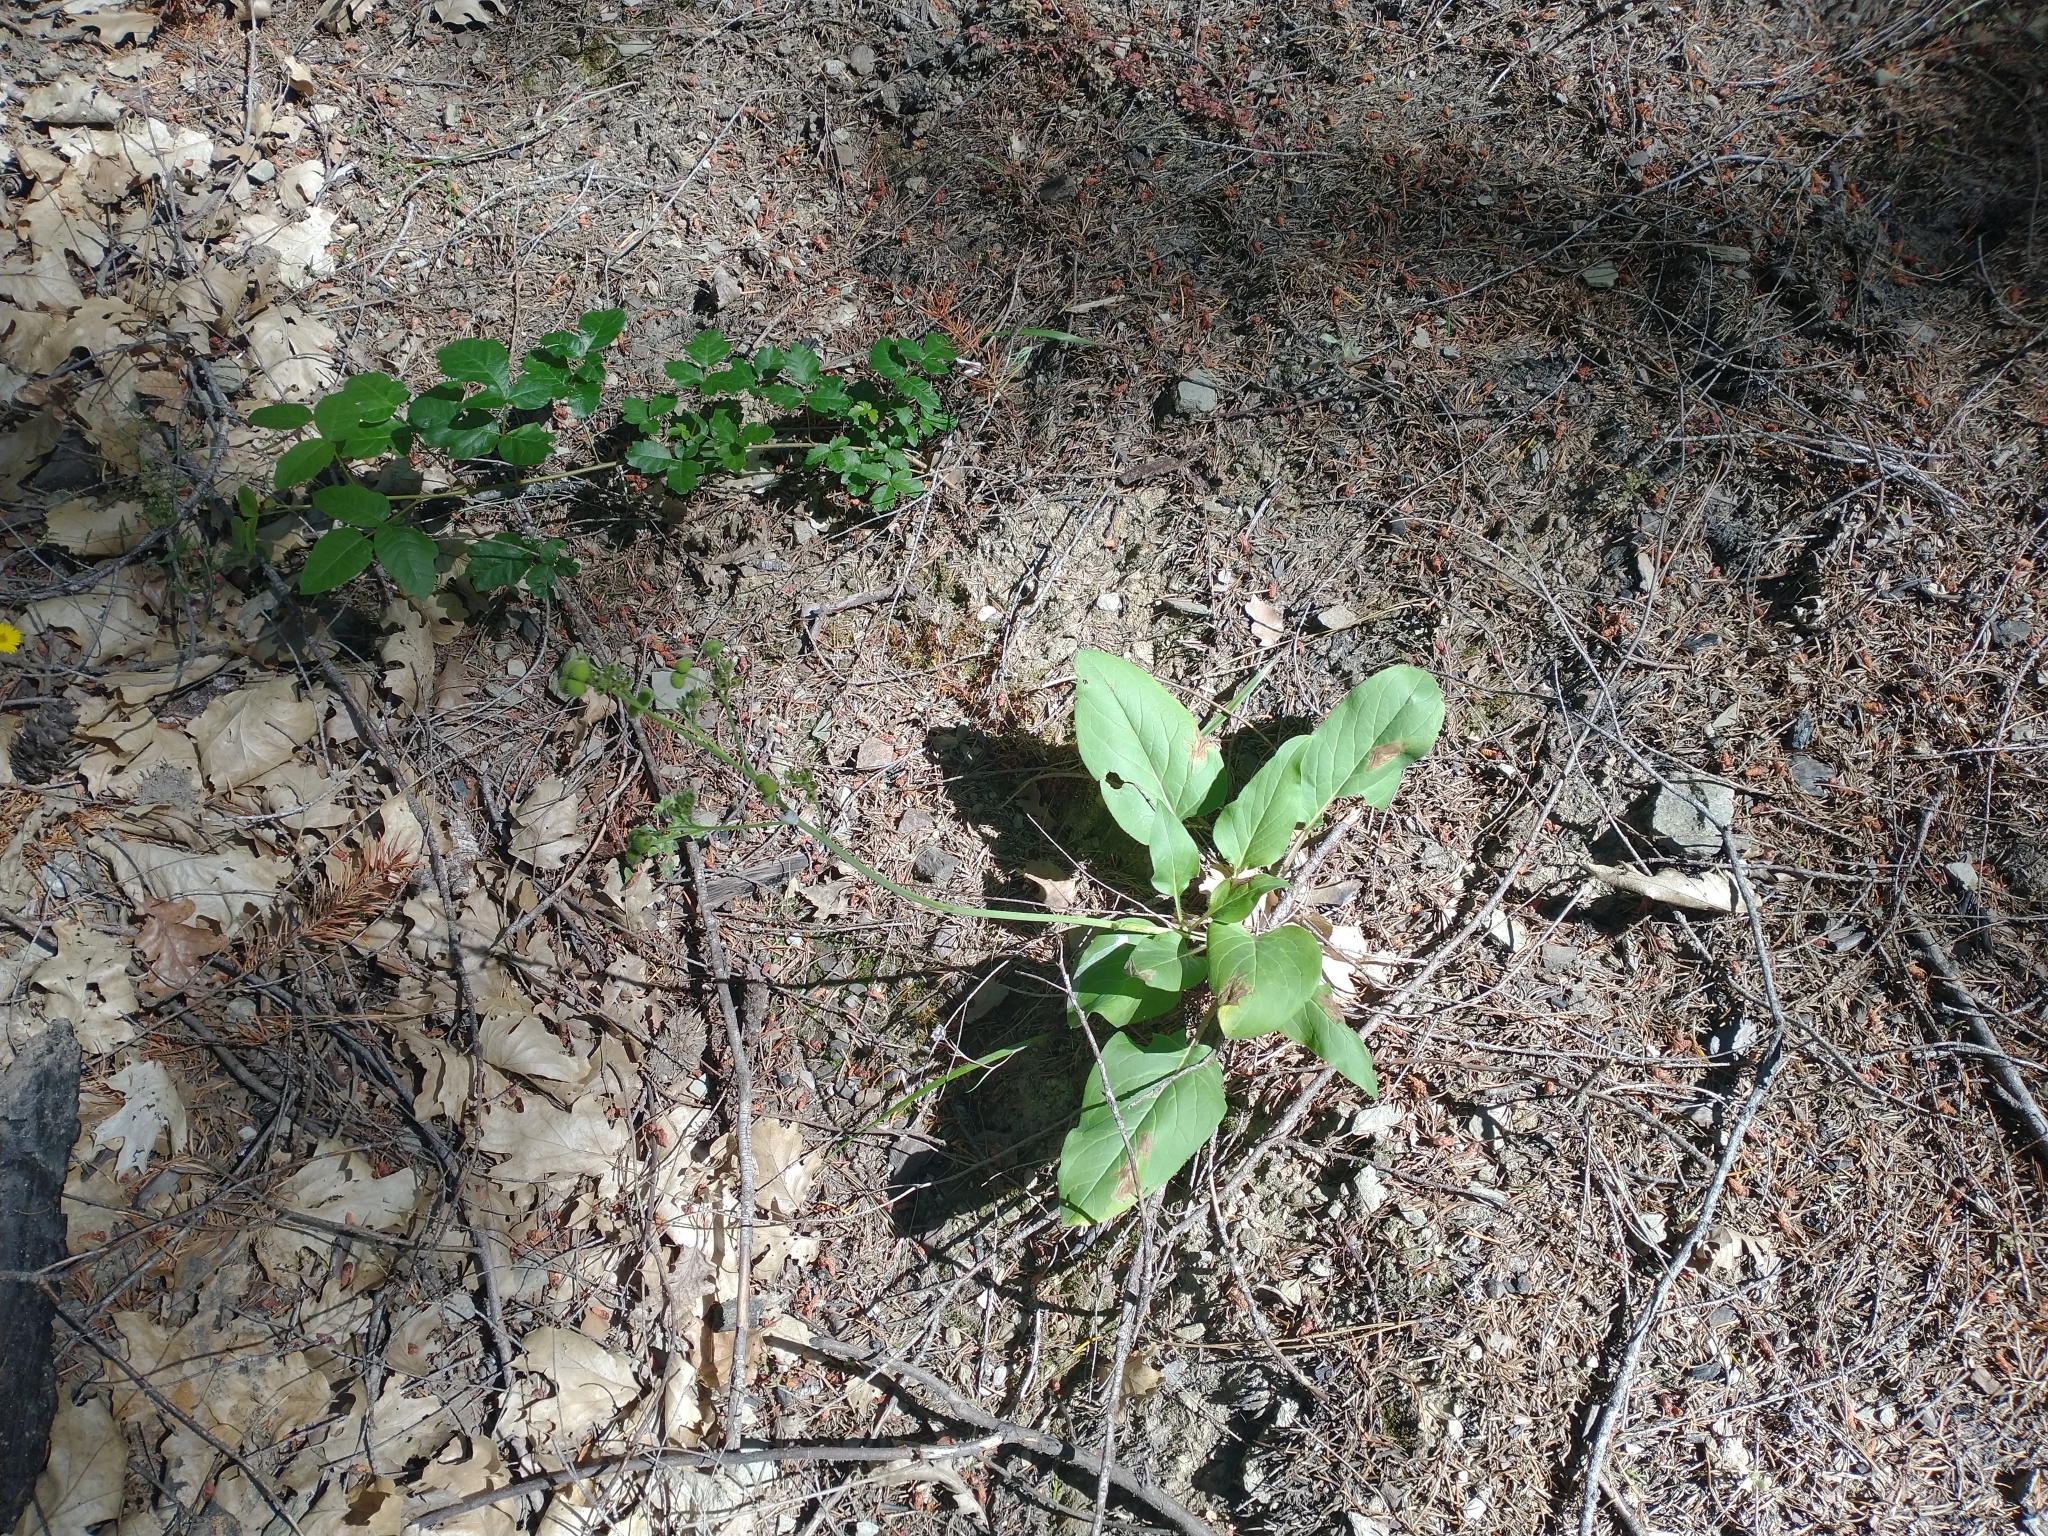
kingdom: Plantae
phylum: Tracheophyta
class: Magnoliopsida
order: Boraginales
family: Boraginaceae
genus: Adelinia
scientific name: Adelinia grande
